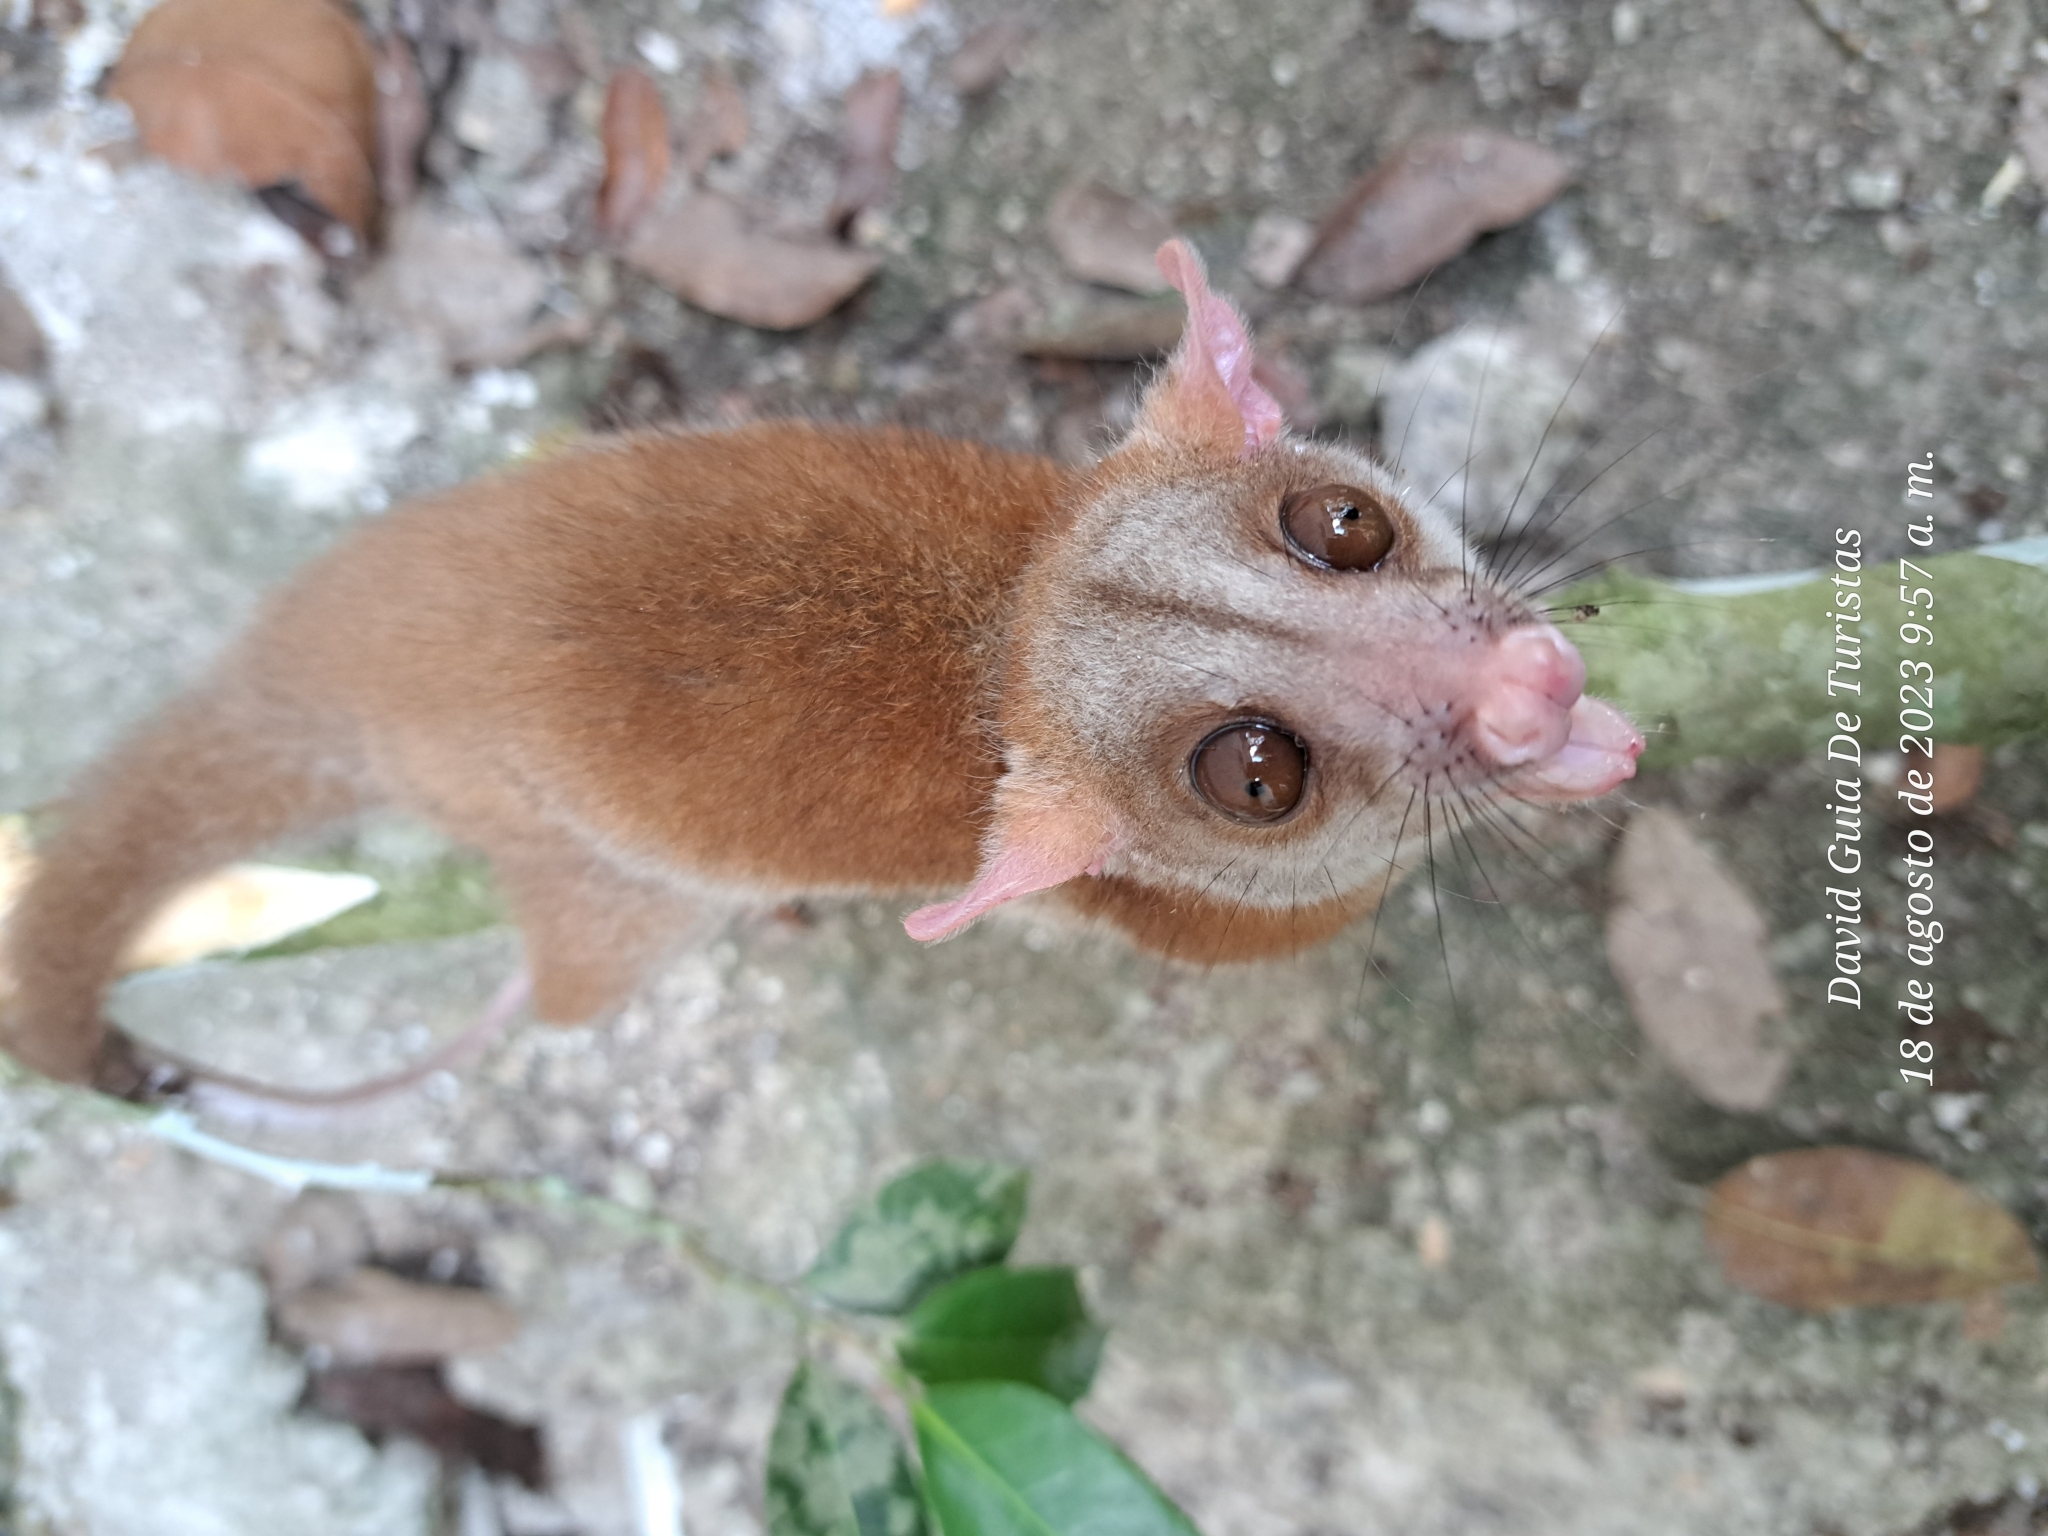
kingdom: Animalia
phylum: Chordata
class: Mammalia
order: Didelphimorphia
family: Didelphidae
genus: Caluromys
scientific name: Caluromys derbianus
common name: Derby's woolly opossum
